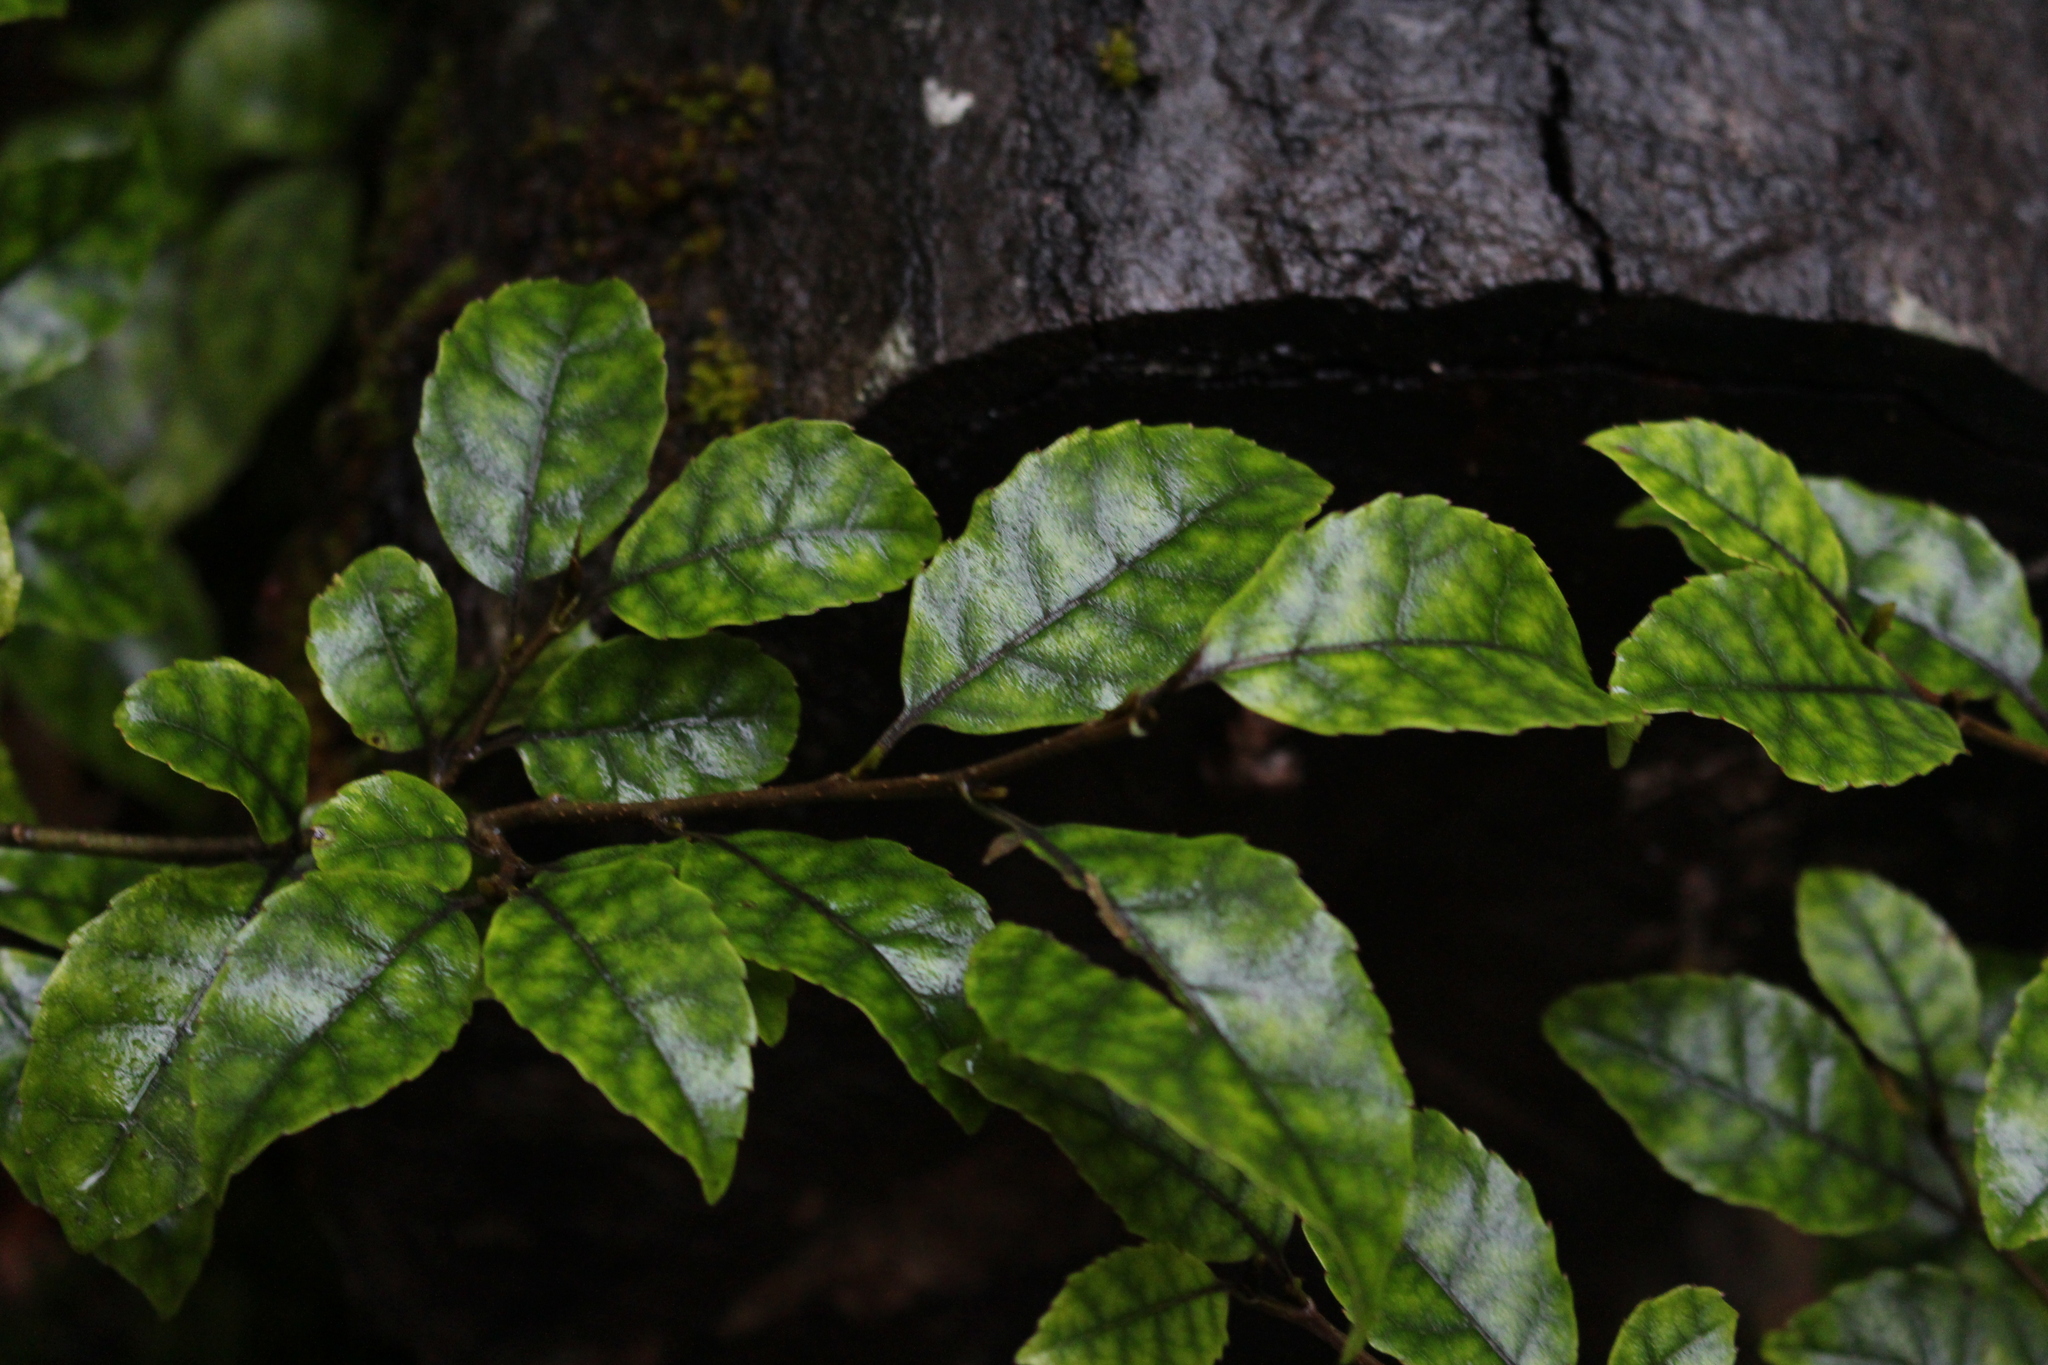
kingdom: Plantae
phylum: Tracheophyta
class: Magnoliopsida
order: Asterales
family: Rousseaceae
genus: Carpodetus
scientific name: Carpodetus serratus
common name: White mapau
